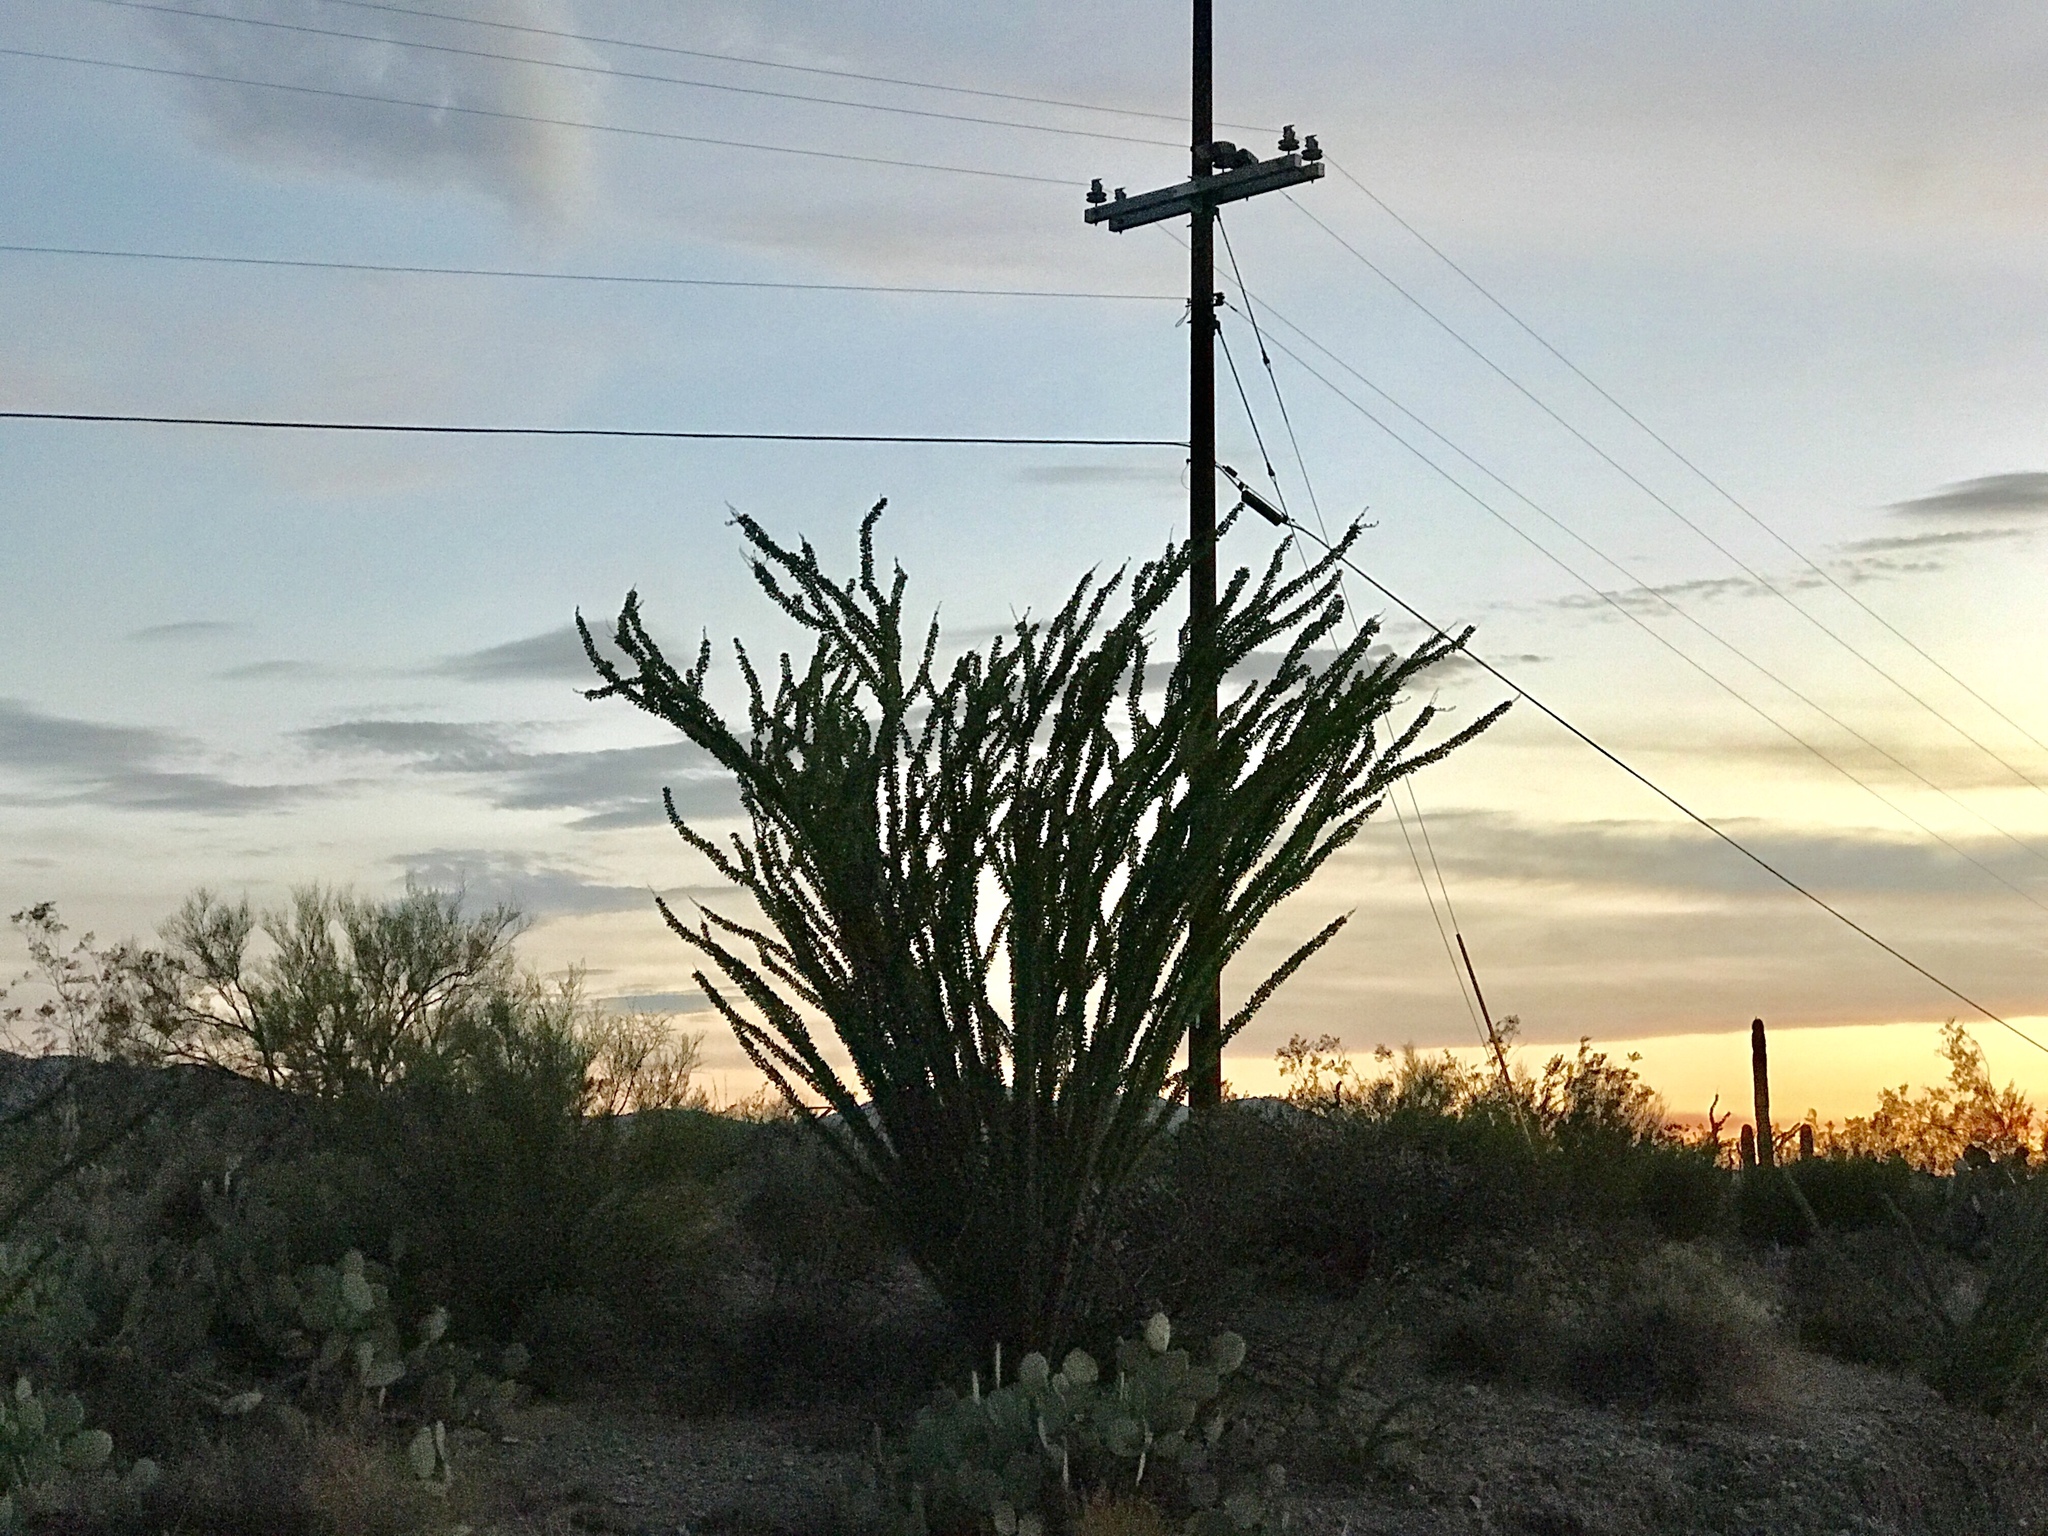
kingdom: Plantae
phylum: Tracheophyta
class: Magnoliopsida
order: Ericales
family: Fouquieriaceae
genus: Fouquieria
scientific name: Fouquieria splendens
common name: Vine-cactus
